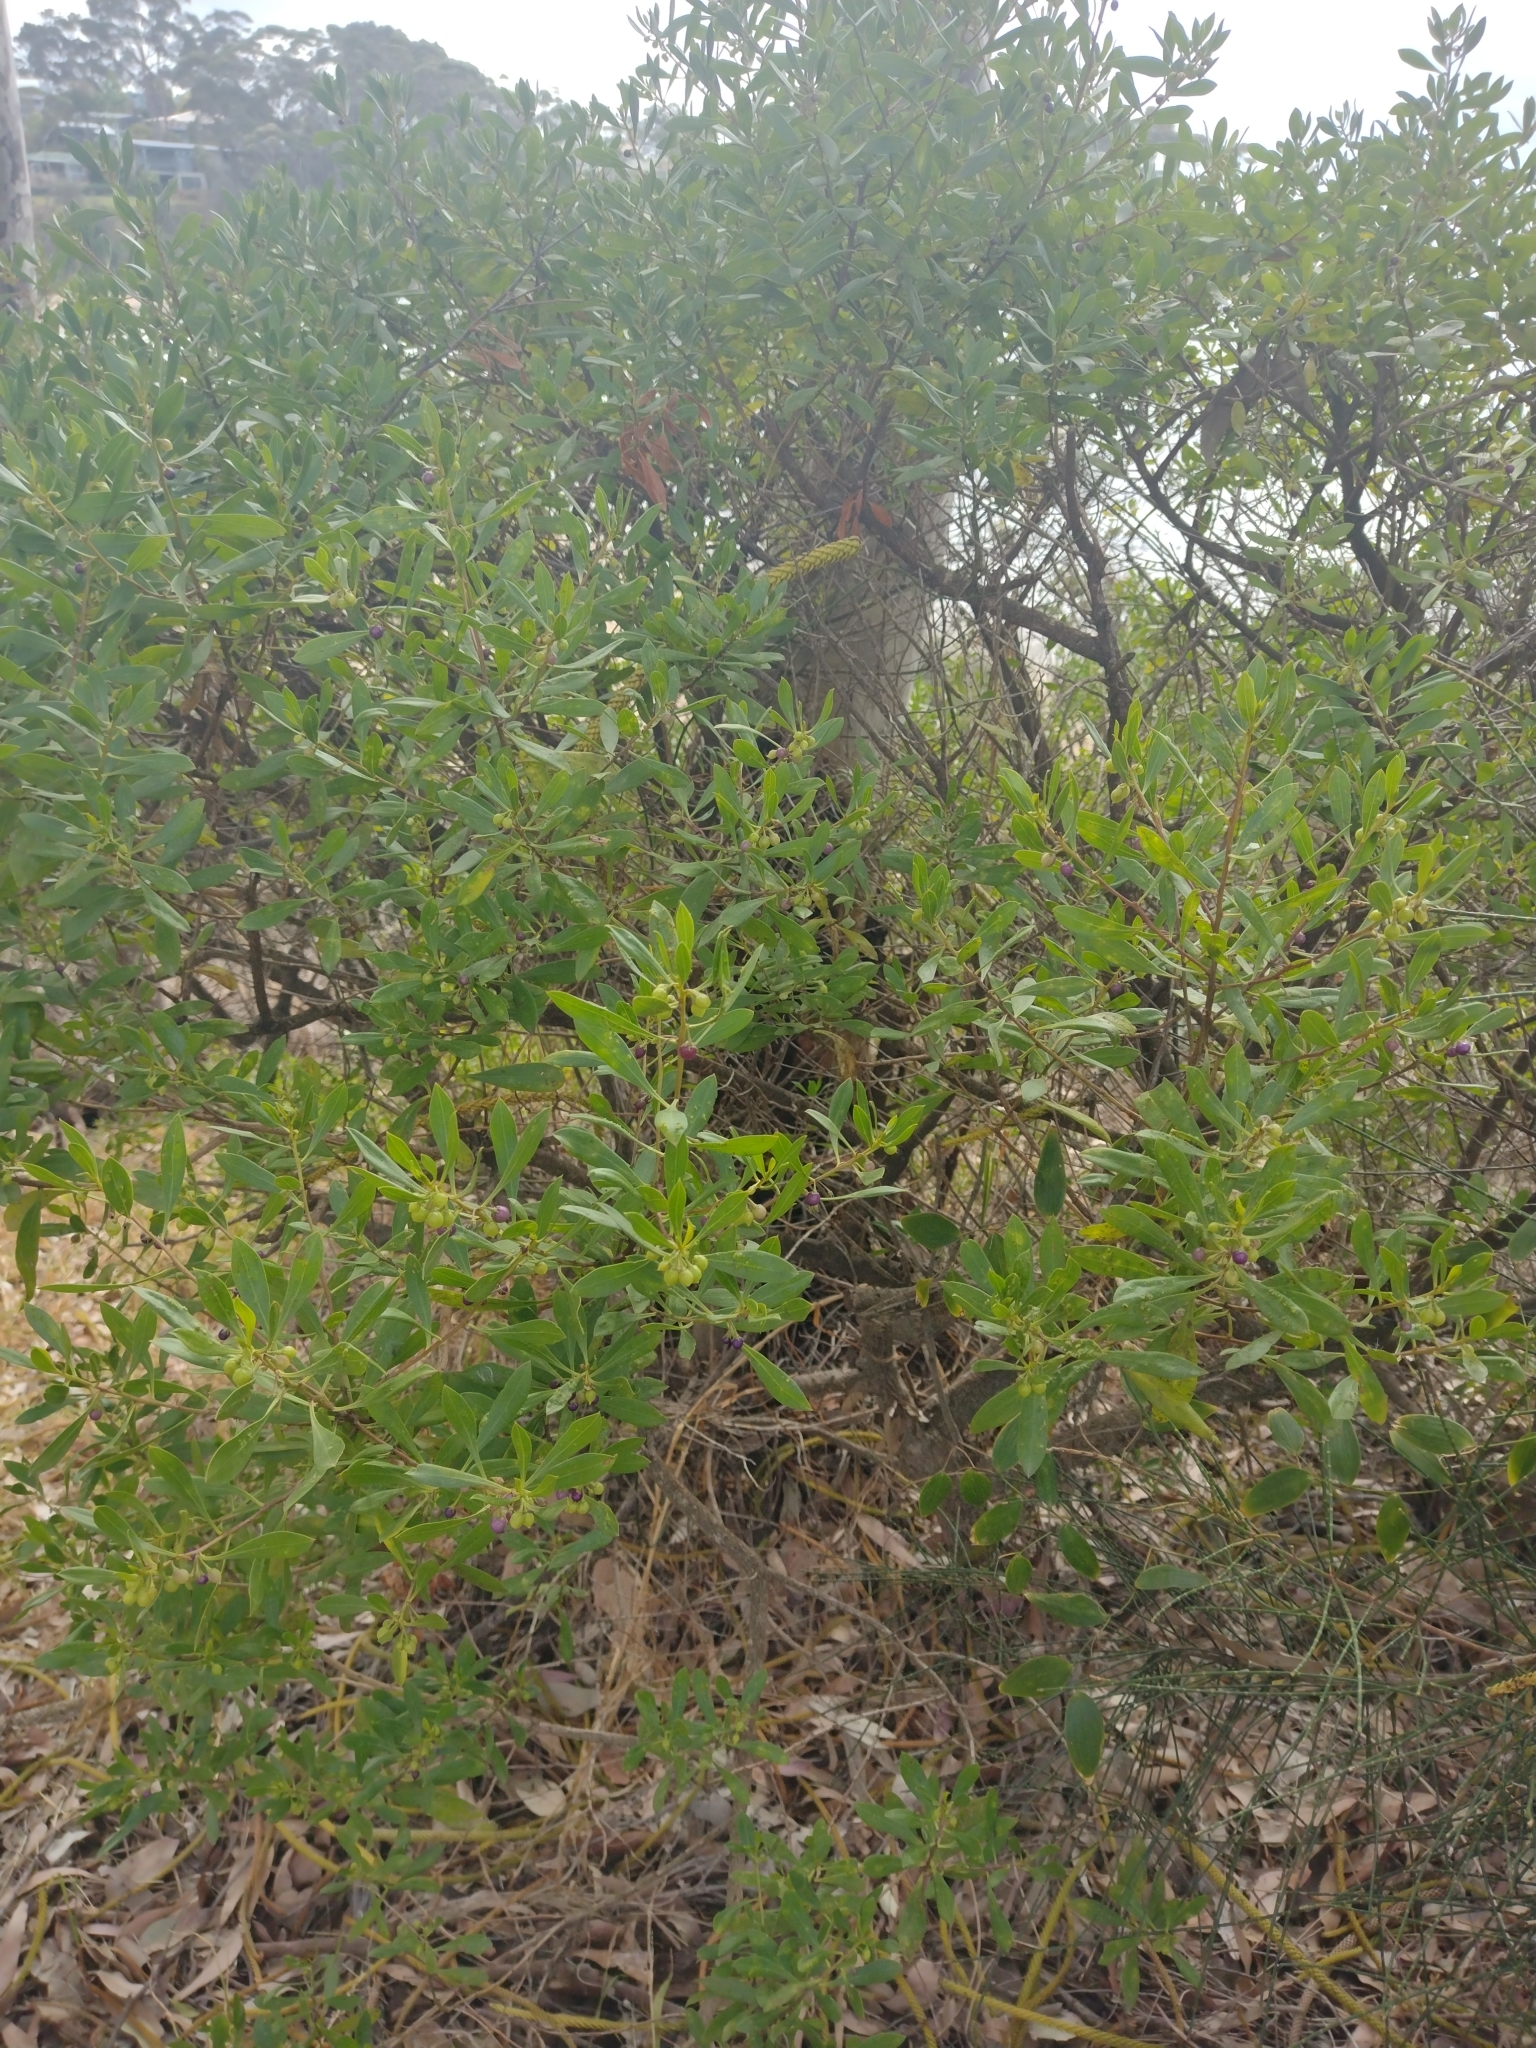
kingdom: Plantae
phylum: Tracheophyta
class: Magnoliopsida
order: Lamiales
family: Scrophulariaceae
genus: Myoporum
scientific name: Myoporum boninense
